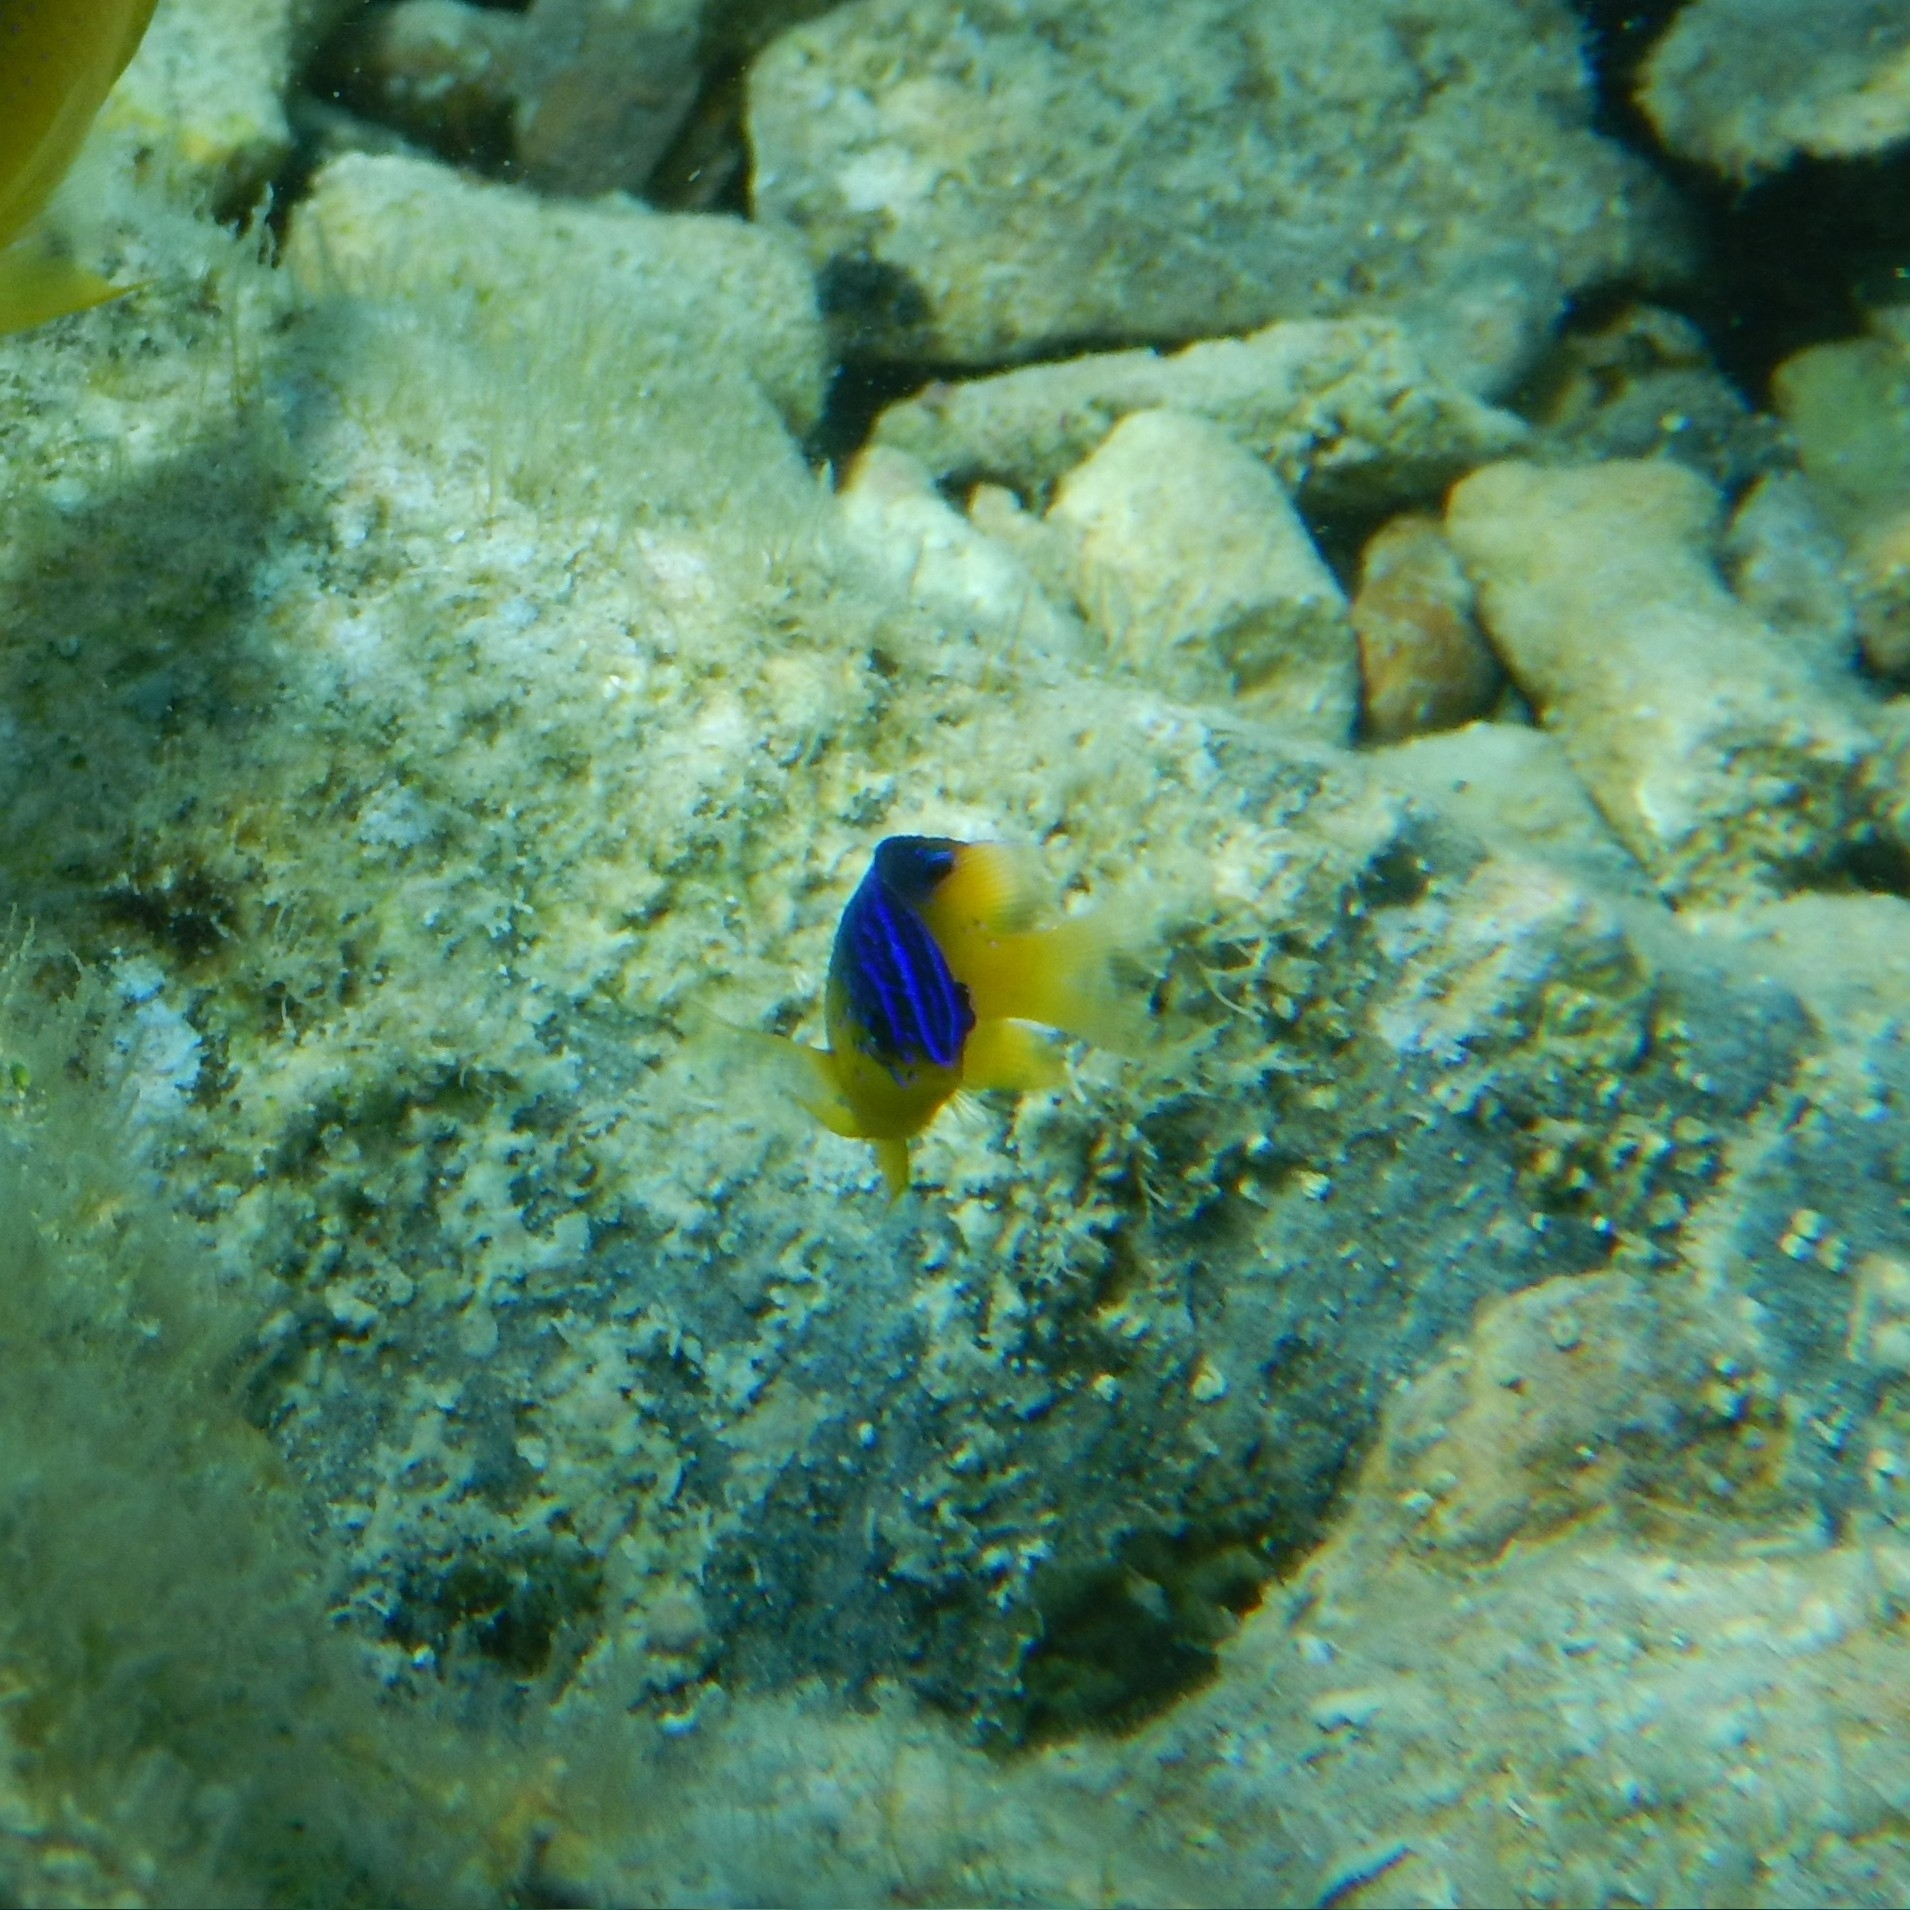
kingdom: Animalia
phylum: Chordata
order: Perciformes
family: Pomacentridae
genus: Stegastes
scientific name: Stegastes leucostictus
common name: Beaugregory
